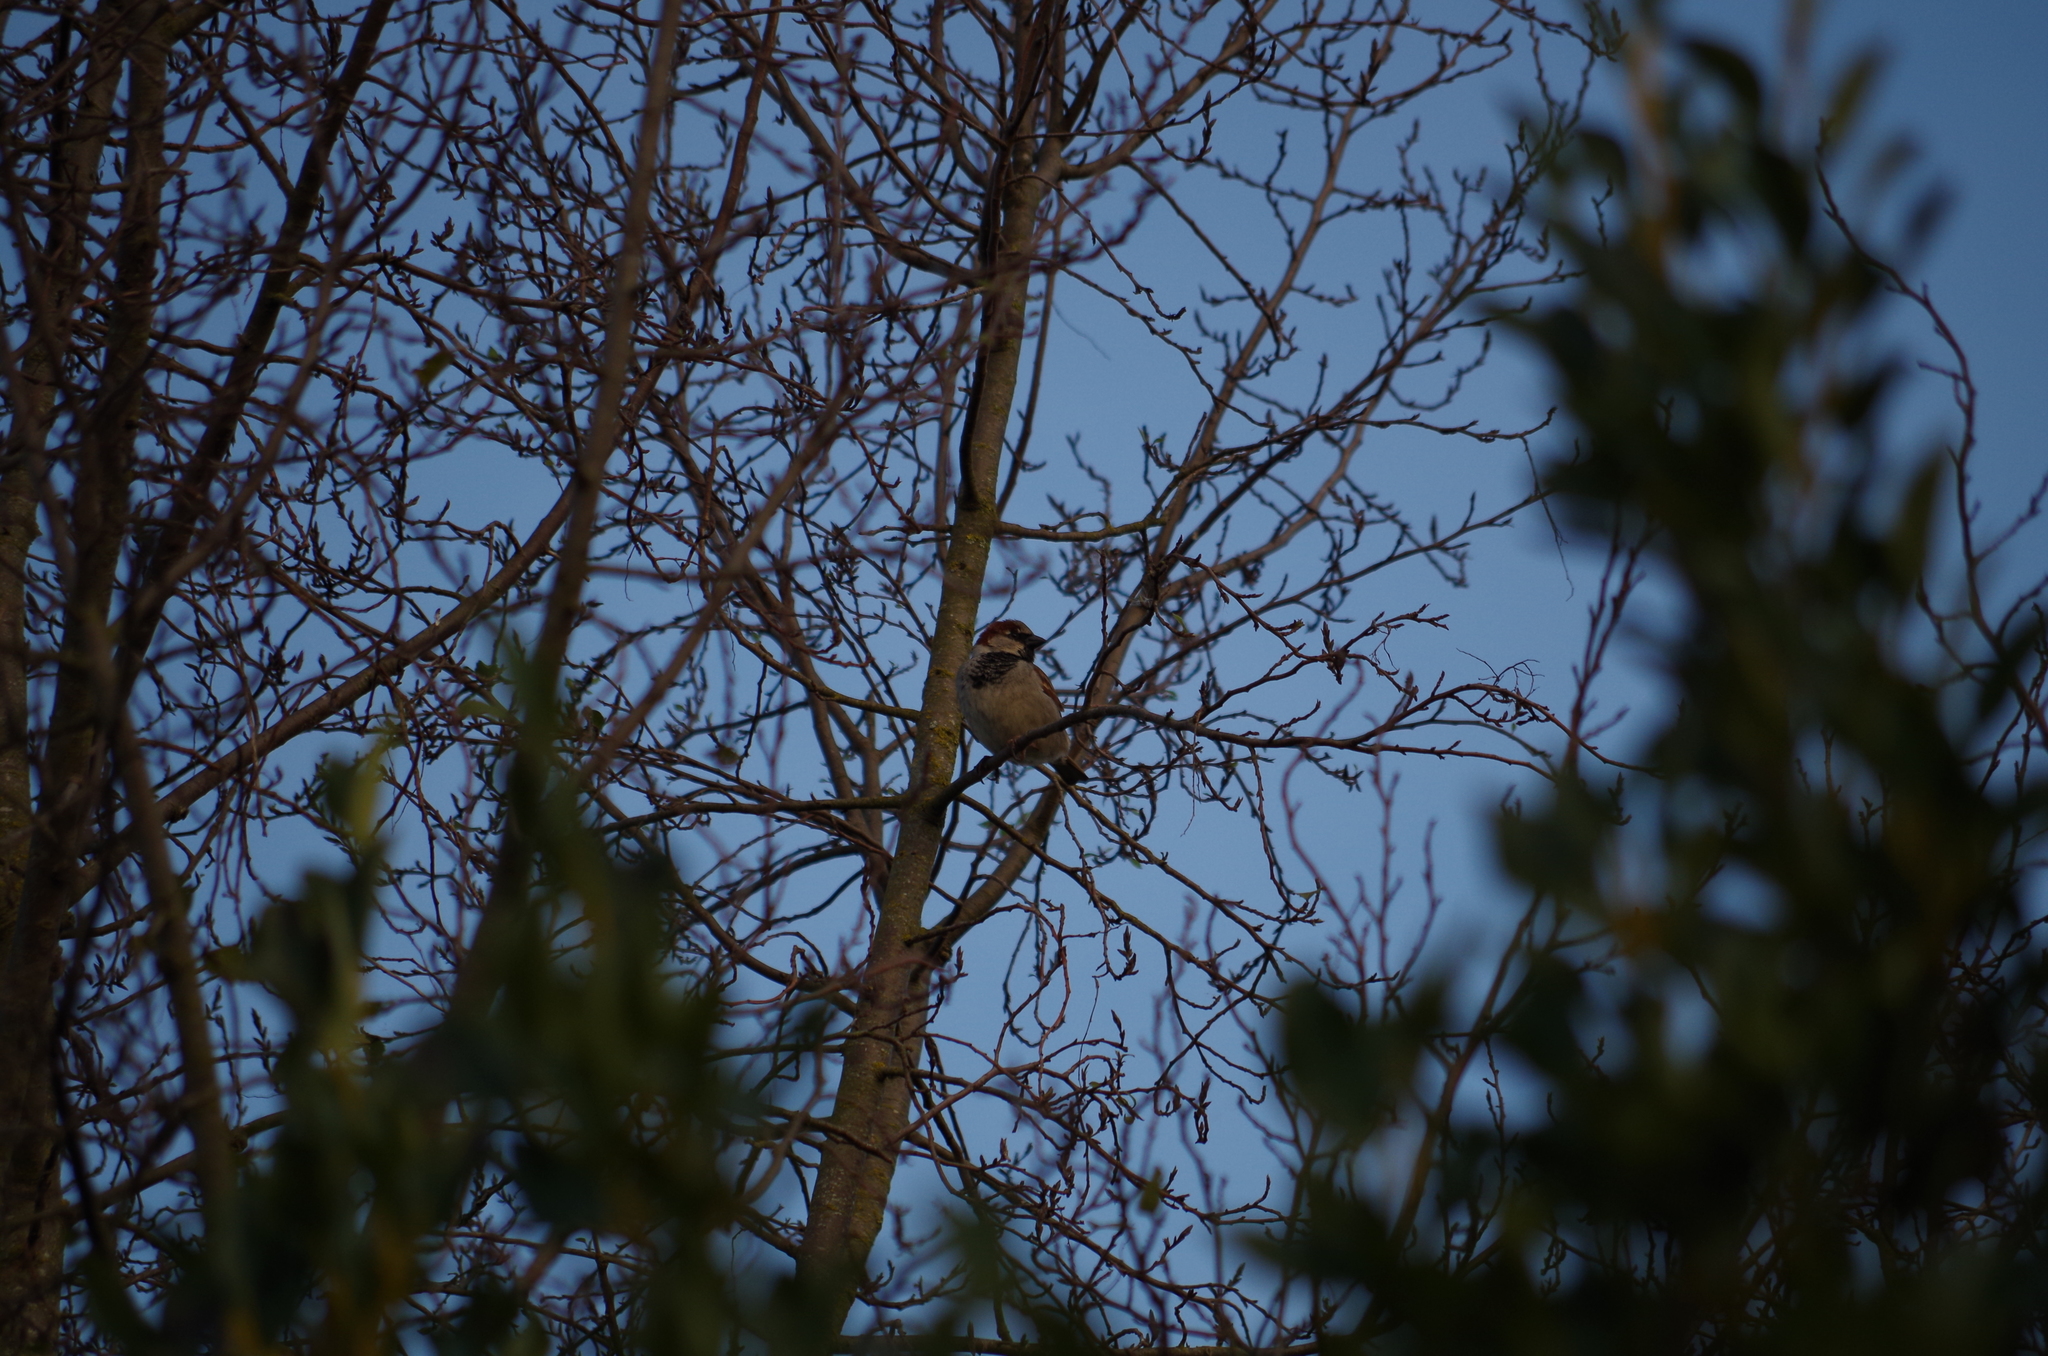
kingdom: Animalia
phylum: Chordata
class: Aves
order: Passeriformes
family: Passeridae
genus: Passer
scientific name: Passer domesticus
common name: House sparrow
